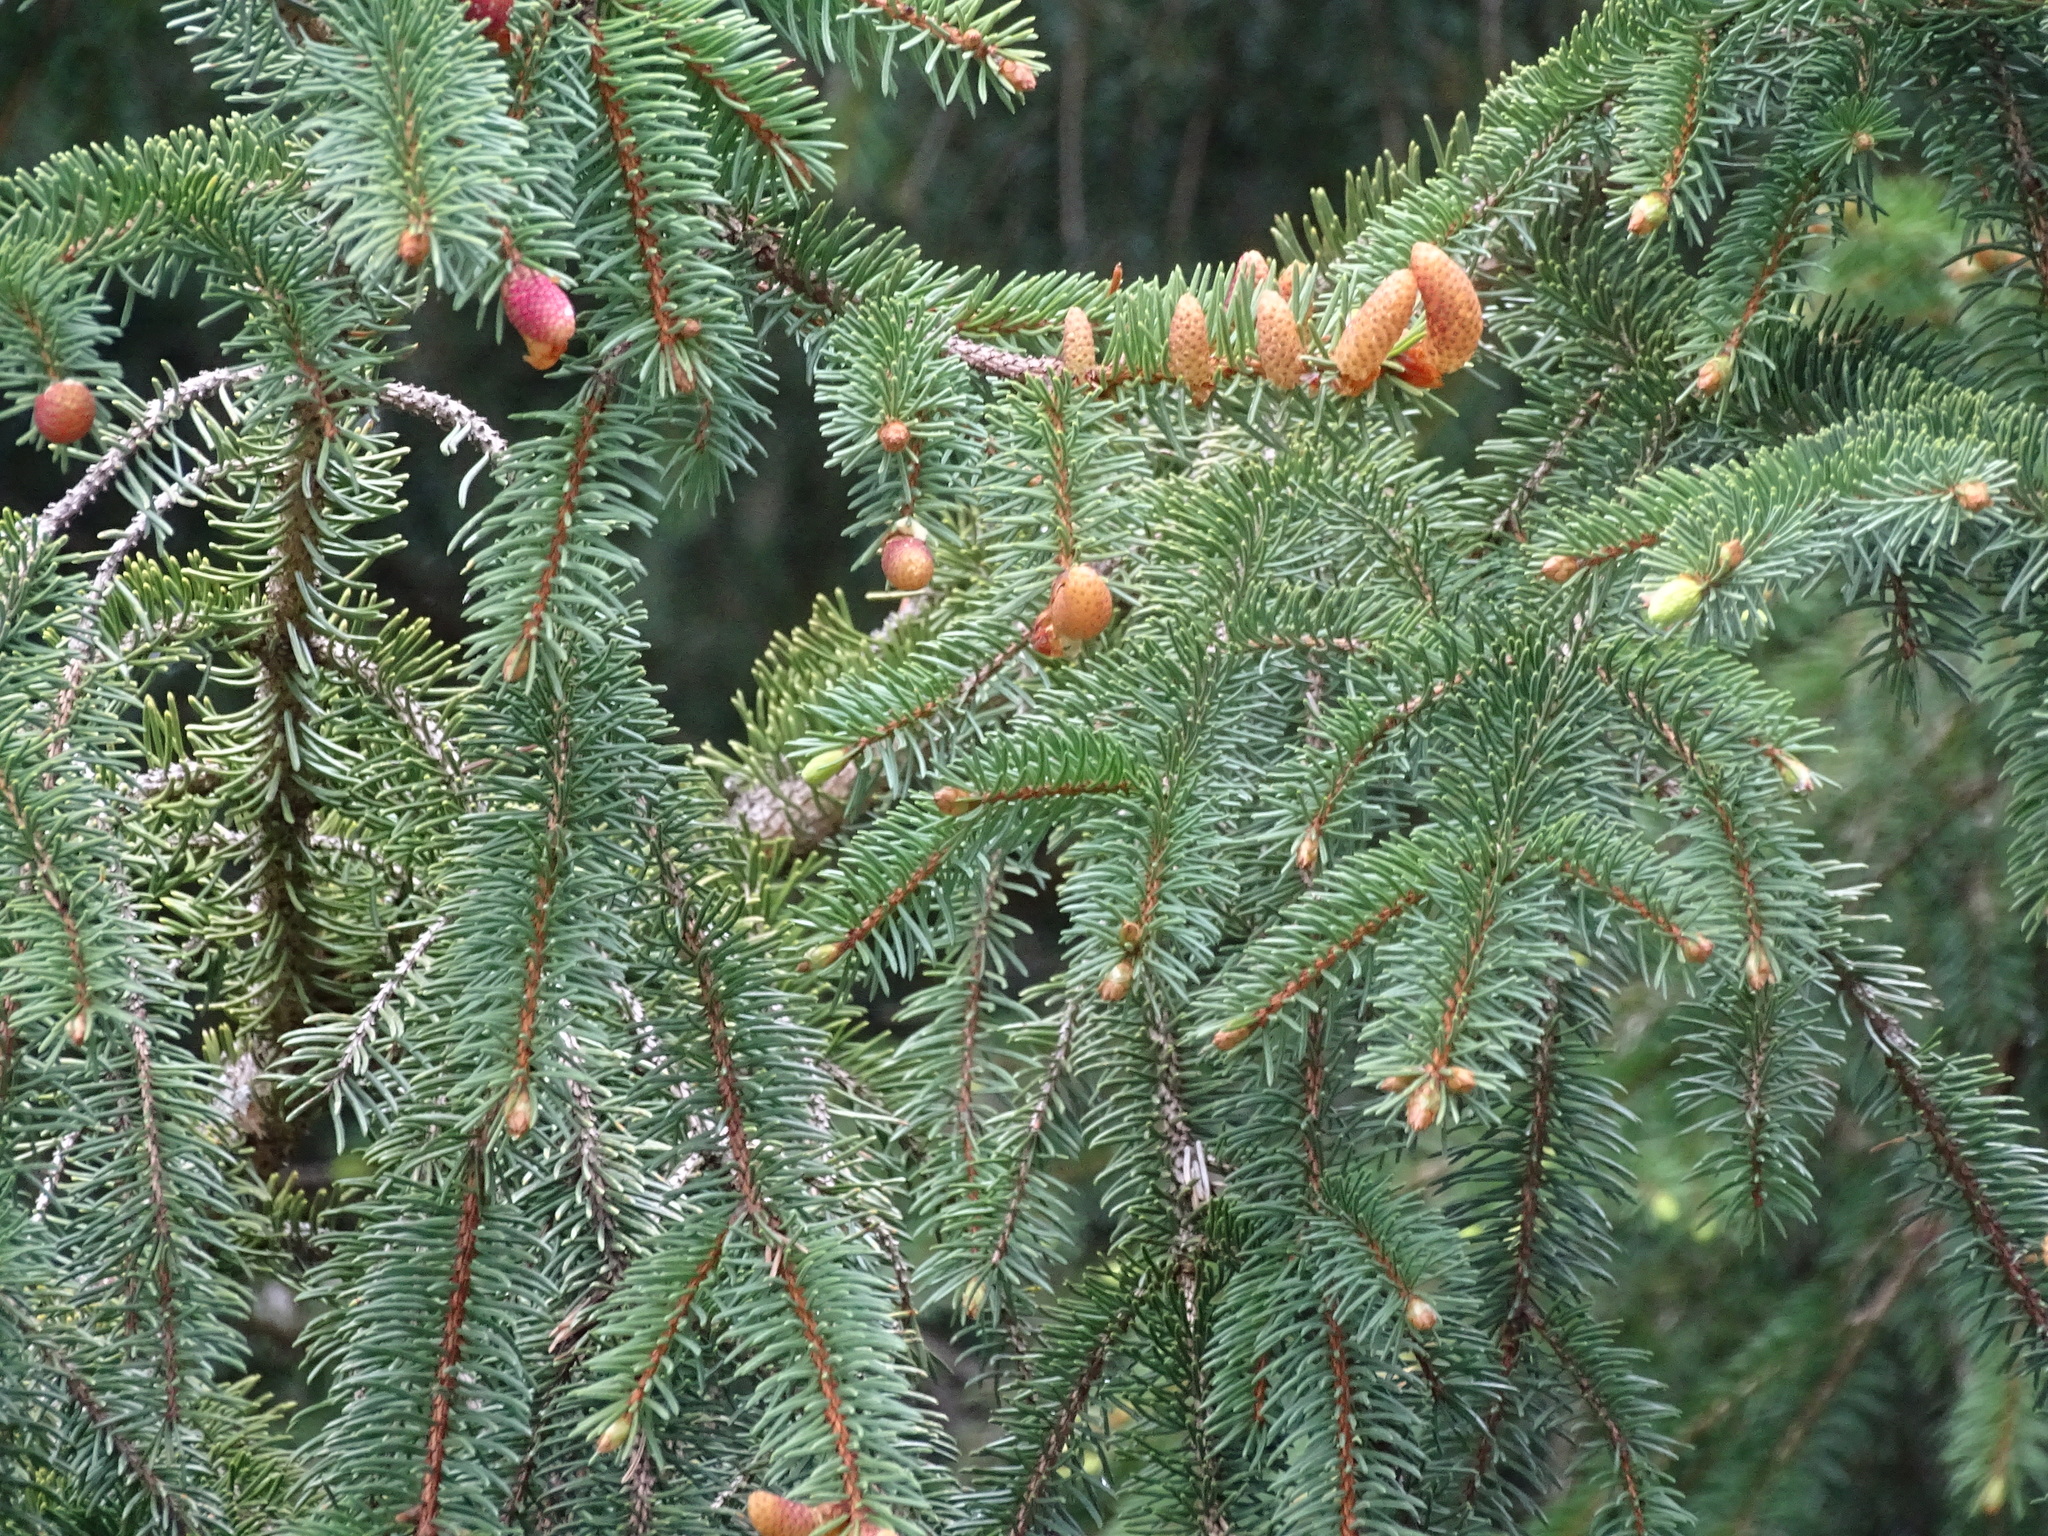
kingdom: Plantae
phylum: Tracheophyta
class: Pinopsida
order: Pinales
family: Pinaceae
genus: Picea
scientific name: Picea abies
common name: Norway spruce
